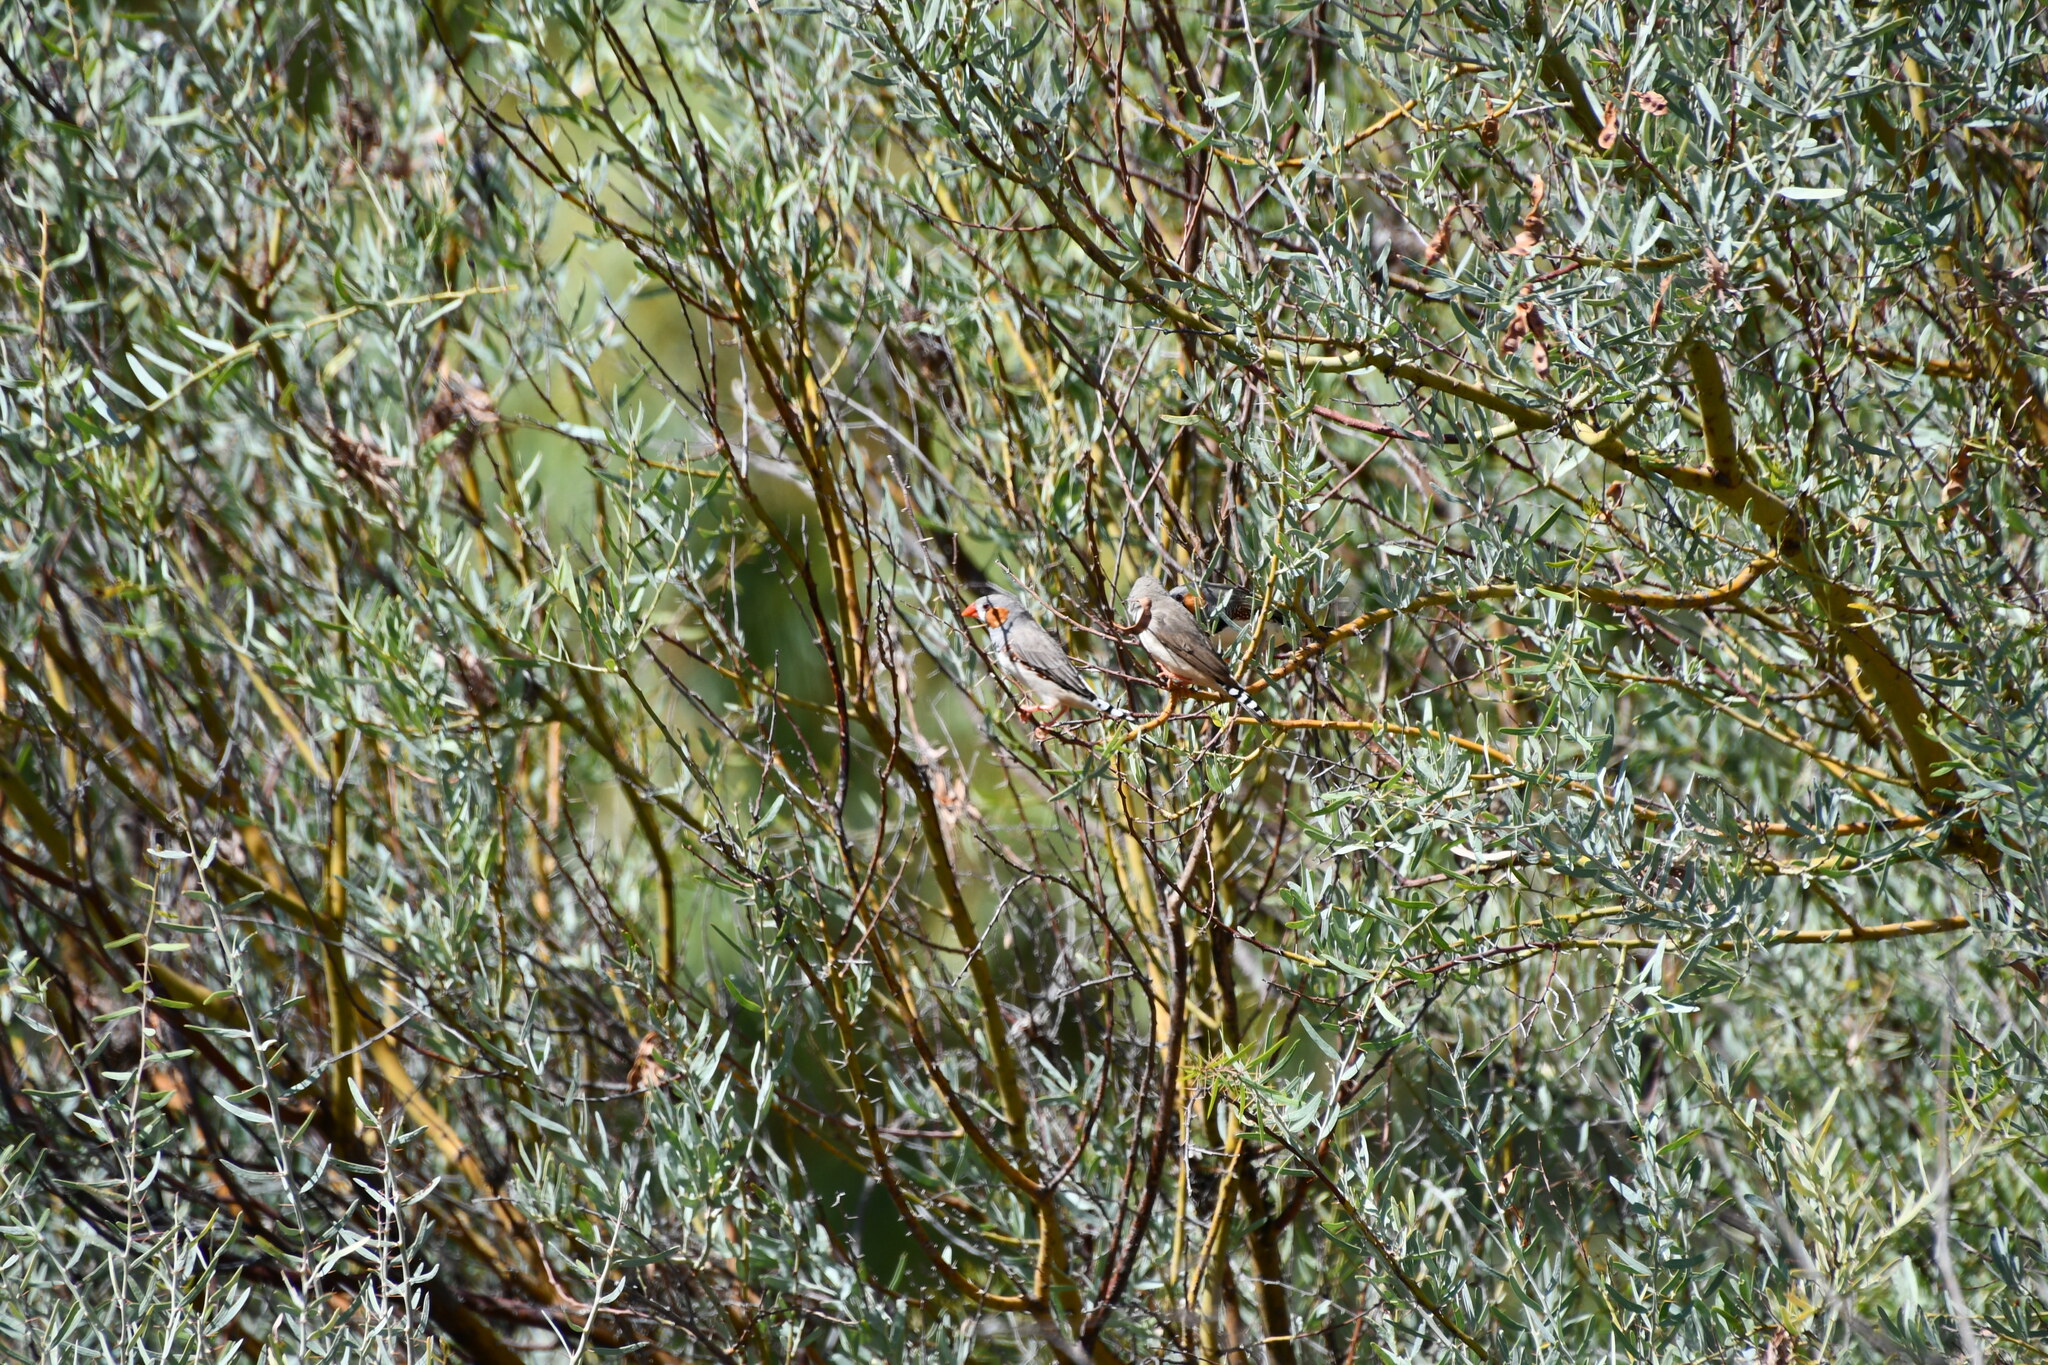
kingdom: Animalia
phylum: Chordata
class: Aves
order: Passeriformes
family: Estrildidae
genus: Taeniopygia
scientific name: Taeniopygia guttata
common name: Zebra finch
